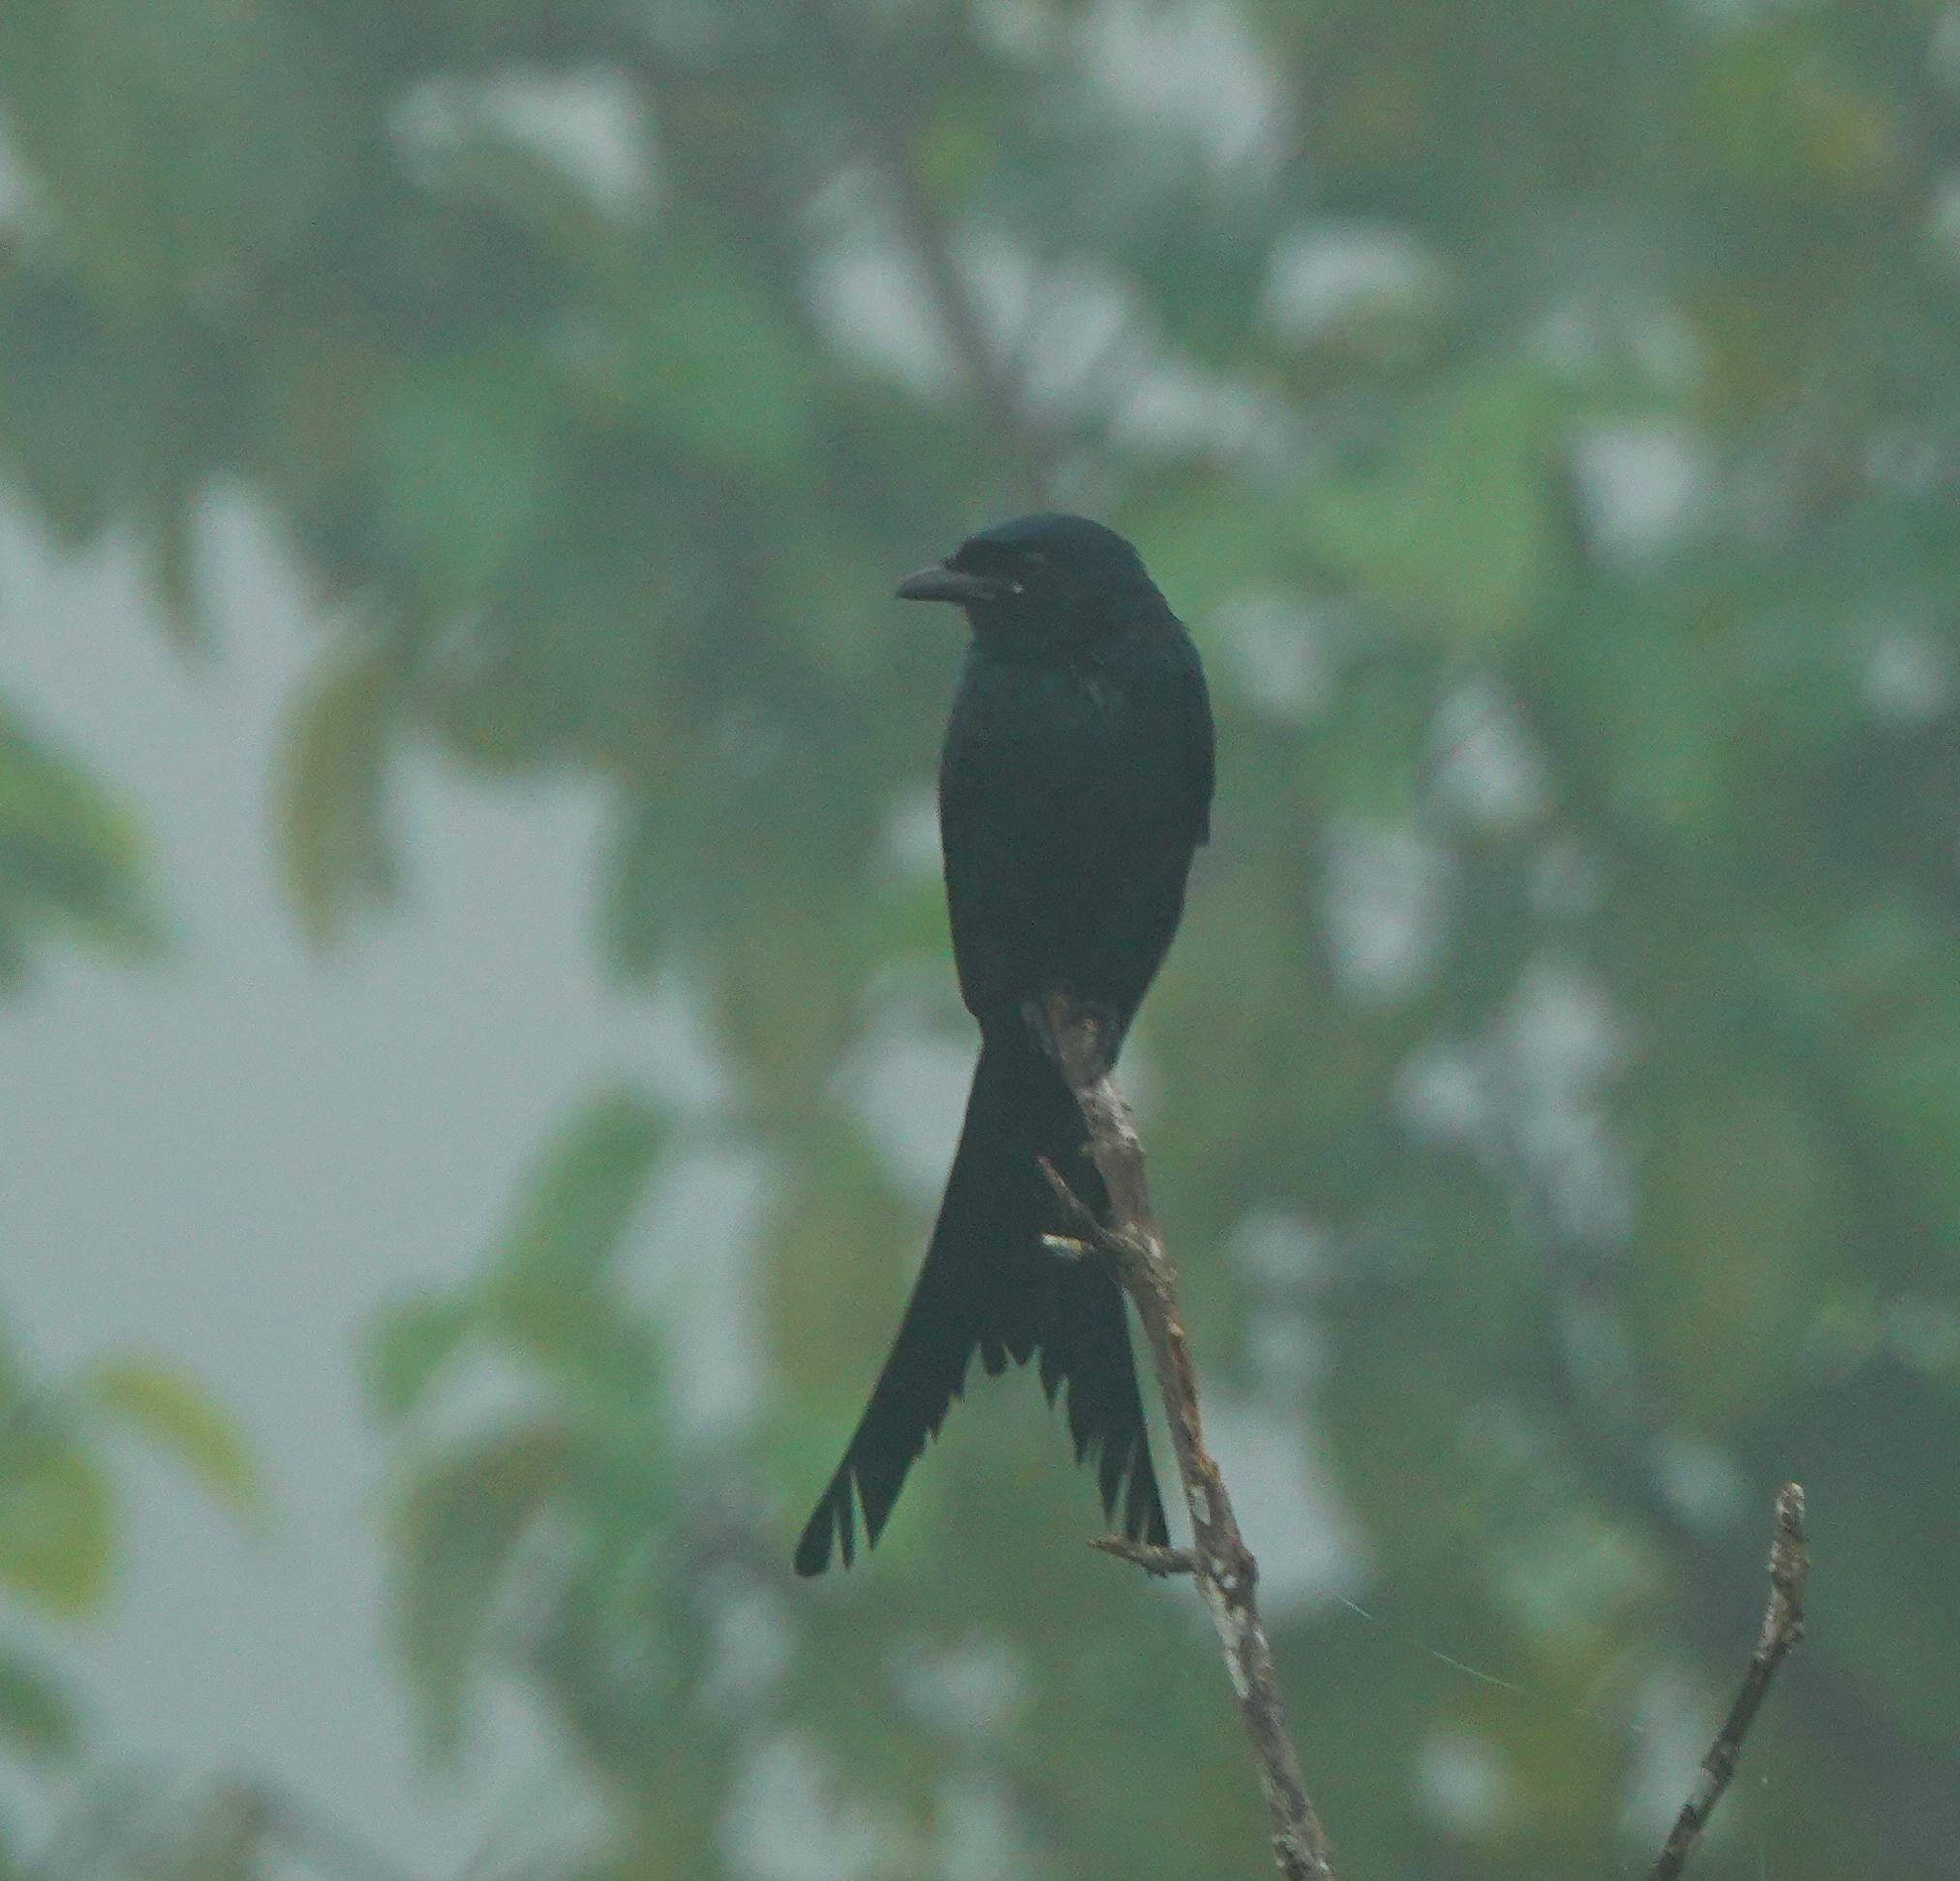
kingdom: Animalia
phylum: Chordata
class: Aves
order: Passeriformes
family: Dicruridae
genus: Dicrurus
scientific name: Dicrurus macrocercus
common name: Black drongo
